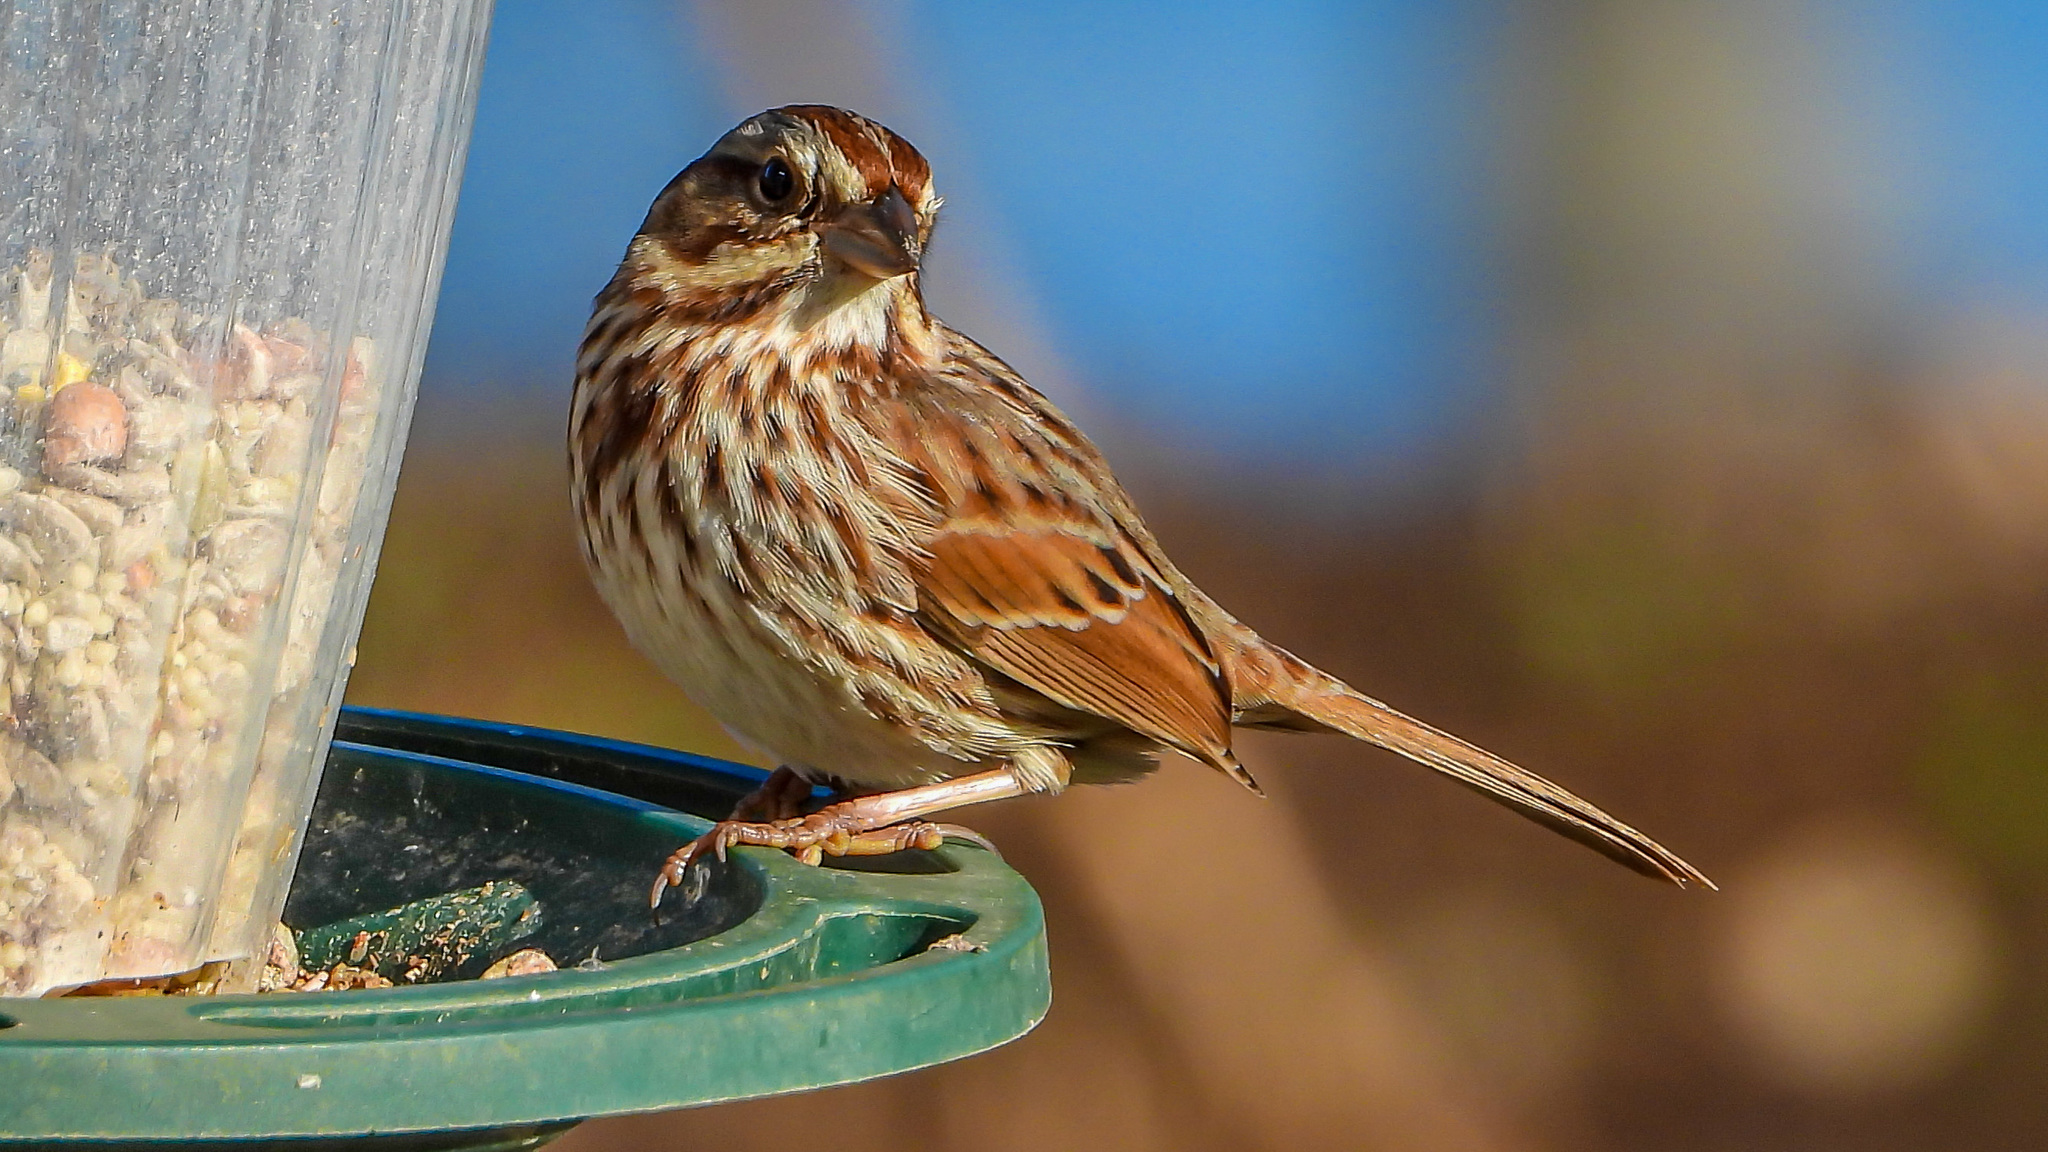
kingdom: Animalia
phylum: Chordata
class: Aves
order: Passeriformes
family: Passerellidae
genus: Melospiza
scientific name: Melospiza melodia
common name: Song sparrow
